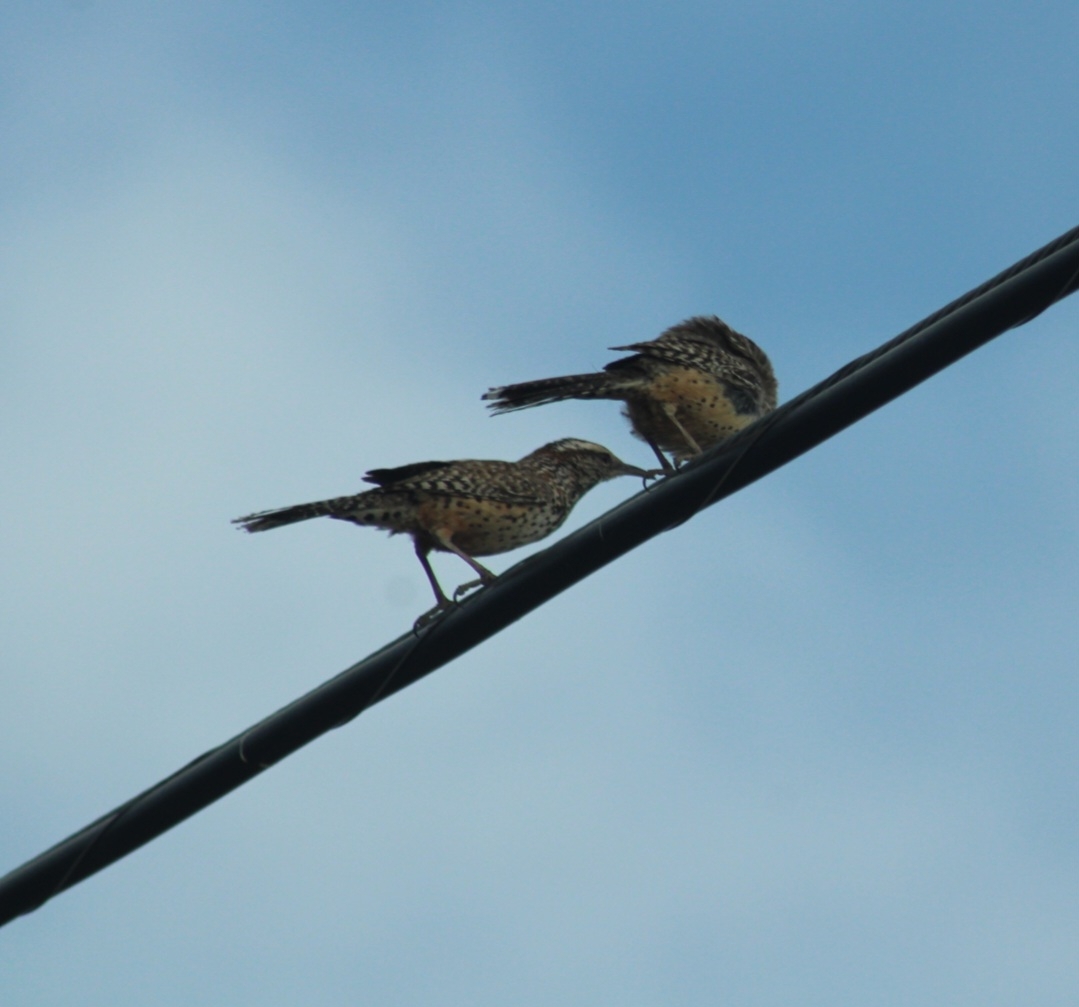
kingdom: Animalia
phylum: Chordata
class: Aves
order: Passeriformes
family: Troglodytidae
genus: Campylorhynchus
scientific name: Campylorhynchus brunneicapillus
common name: Cactus wren
